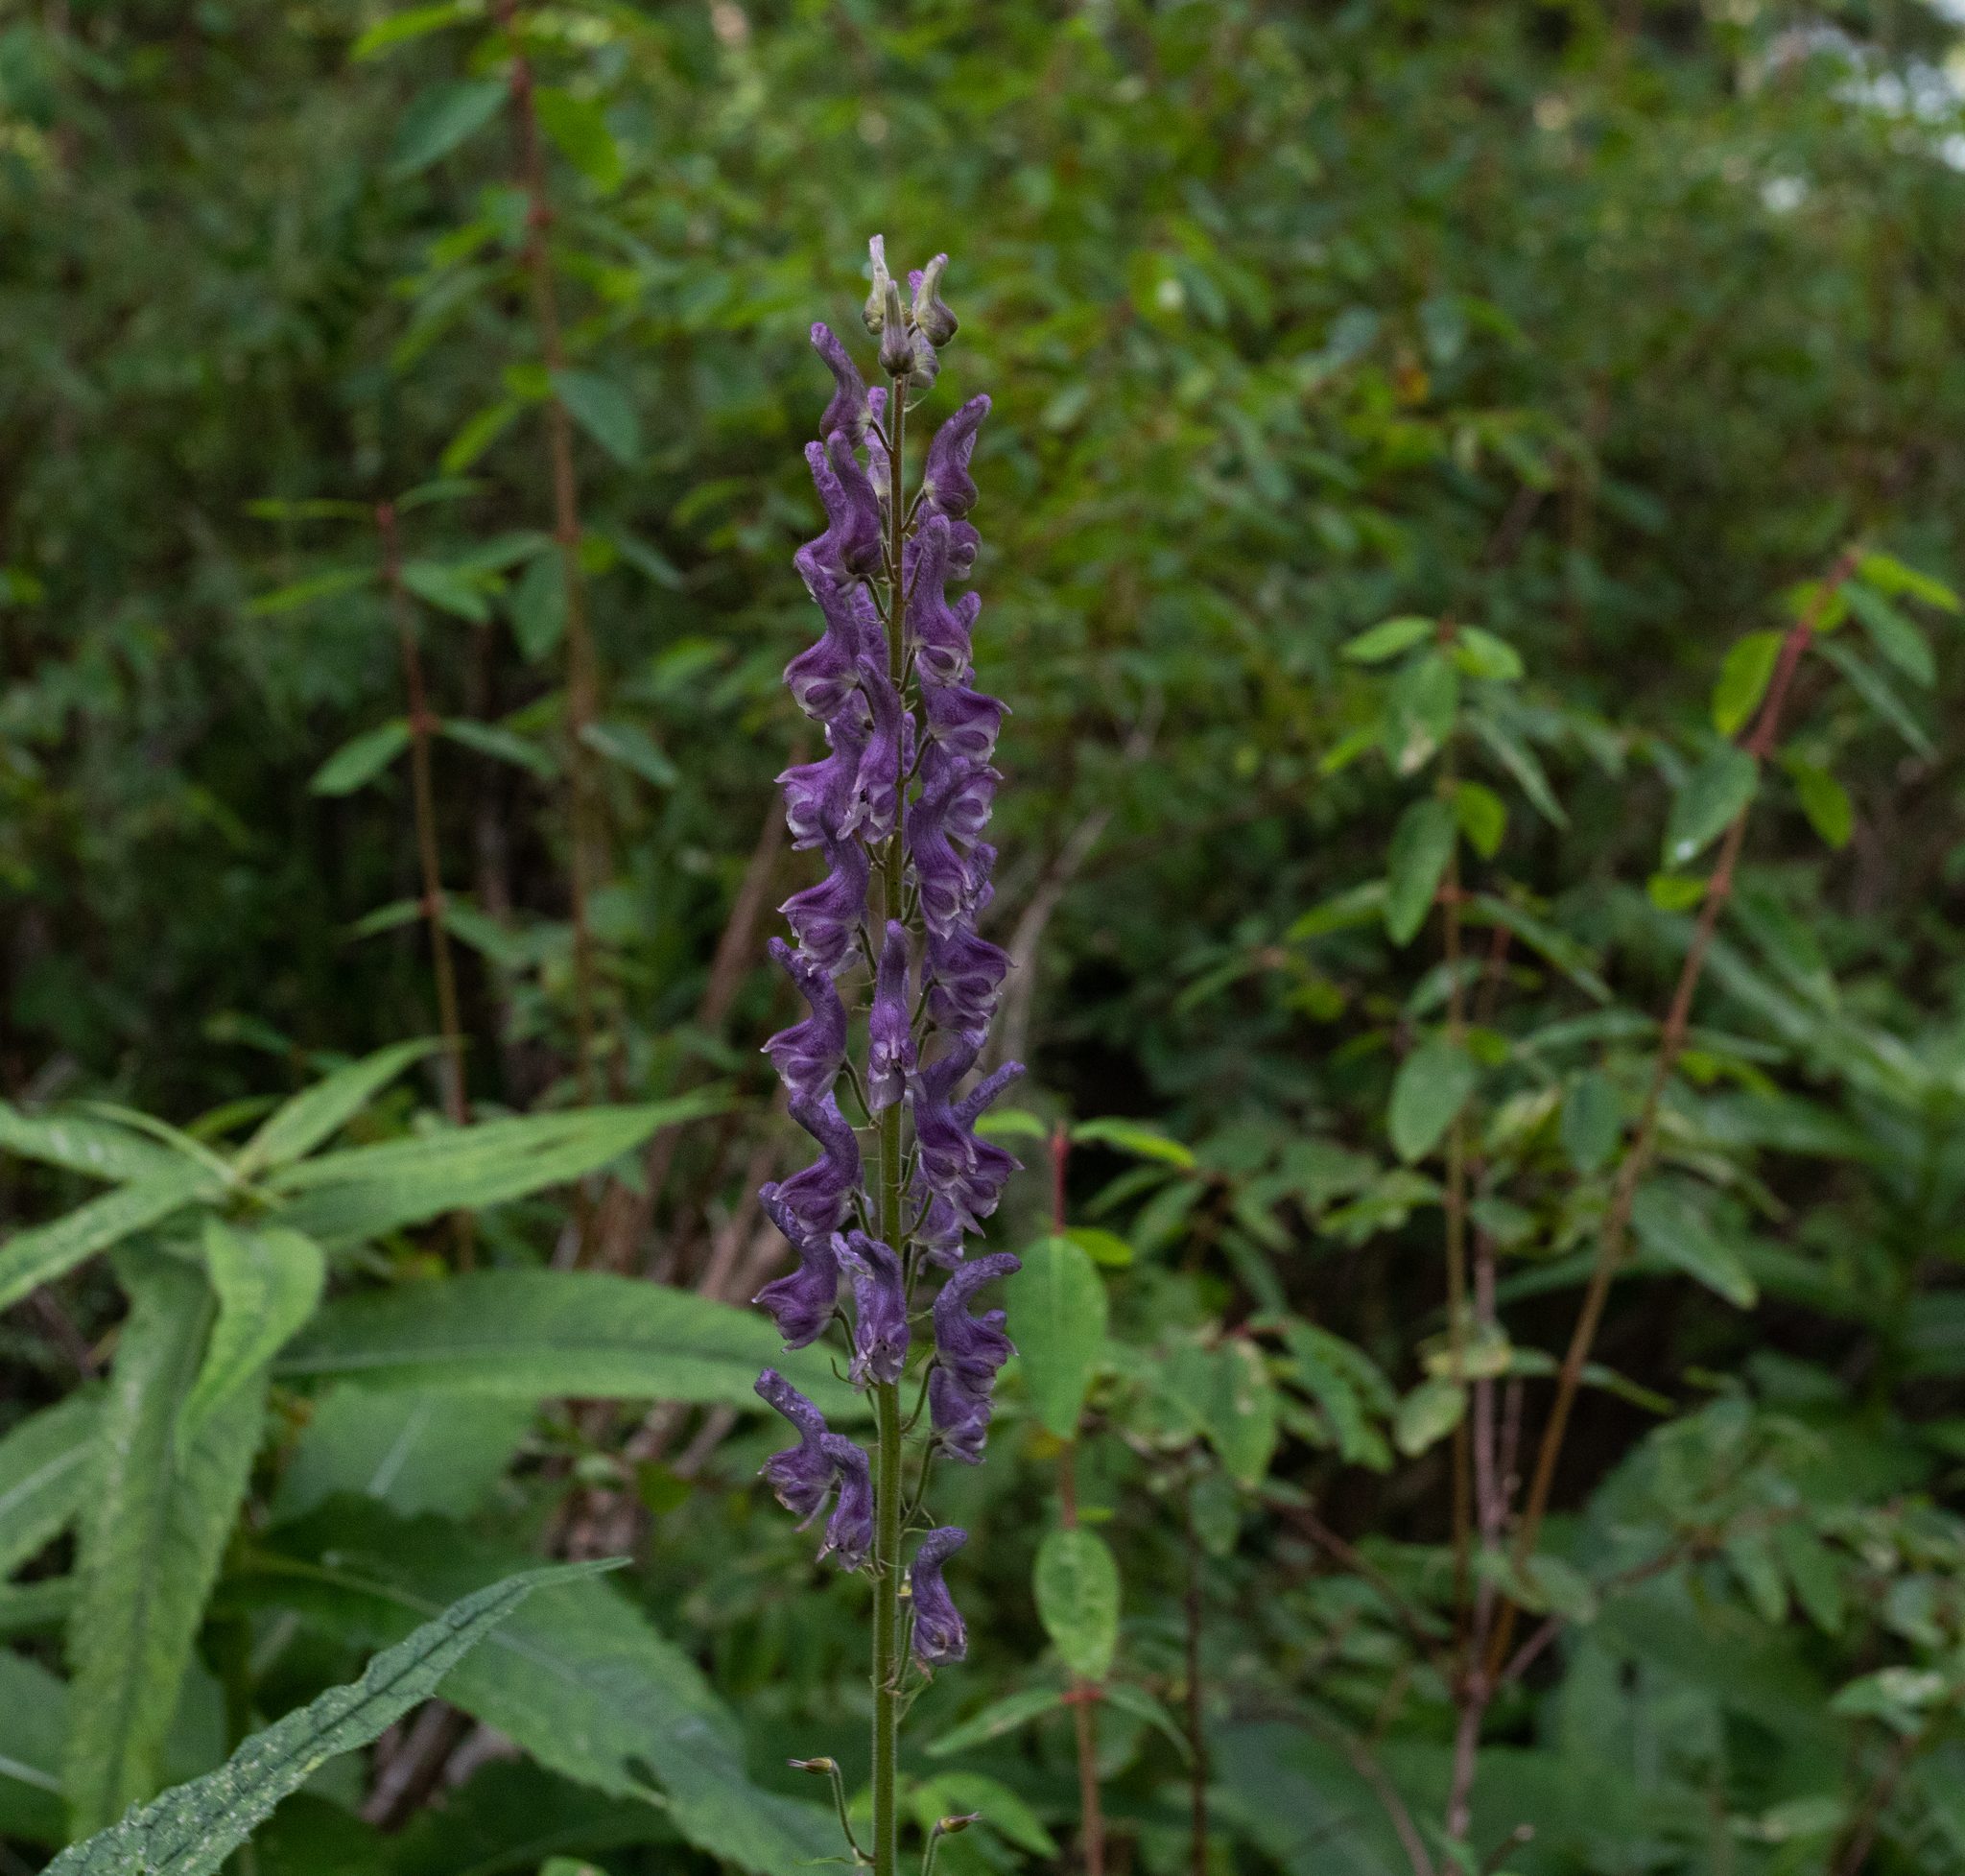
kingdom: Plantae
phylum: Tracheophyta
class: Magnoliopsida
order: Ranunculales
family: Ranunculaceae
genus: Aconitum
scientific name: Aconitum septentrionale
